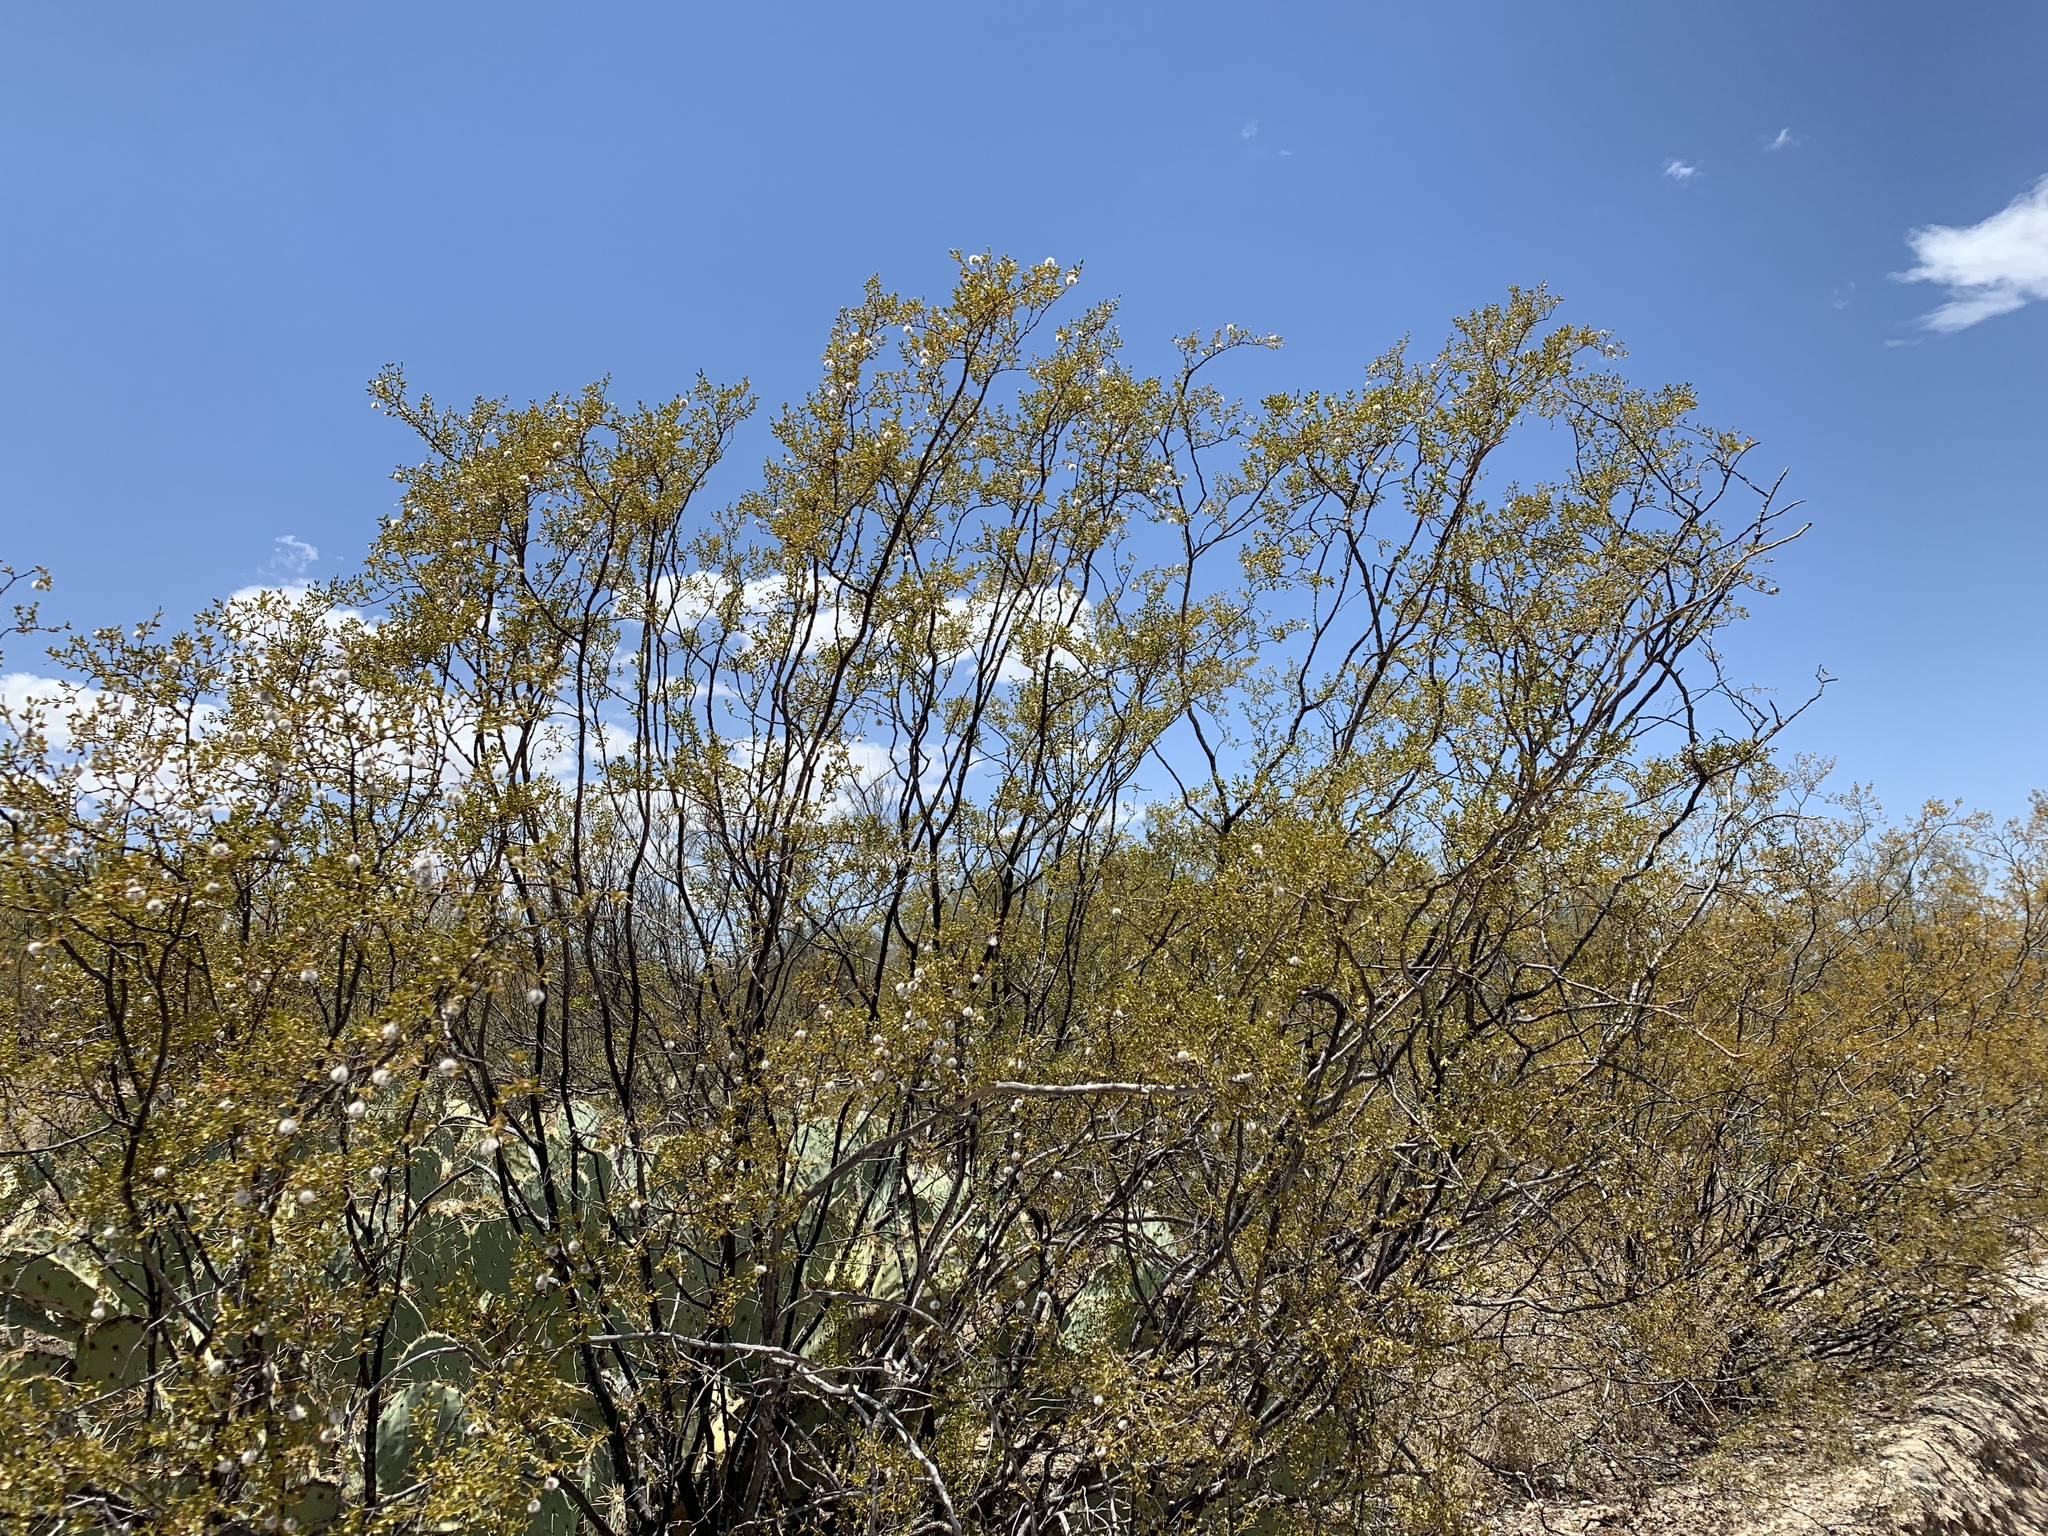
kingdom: Plantae
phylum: Tracheophyta
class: Magnoliopsida
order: Zygophyllales
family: Zygophyllaceae
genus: Larrea
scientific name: Larrea tridentata
